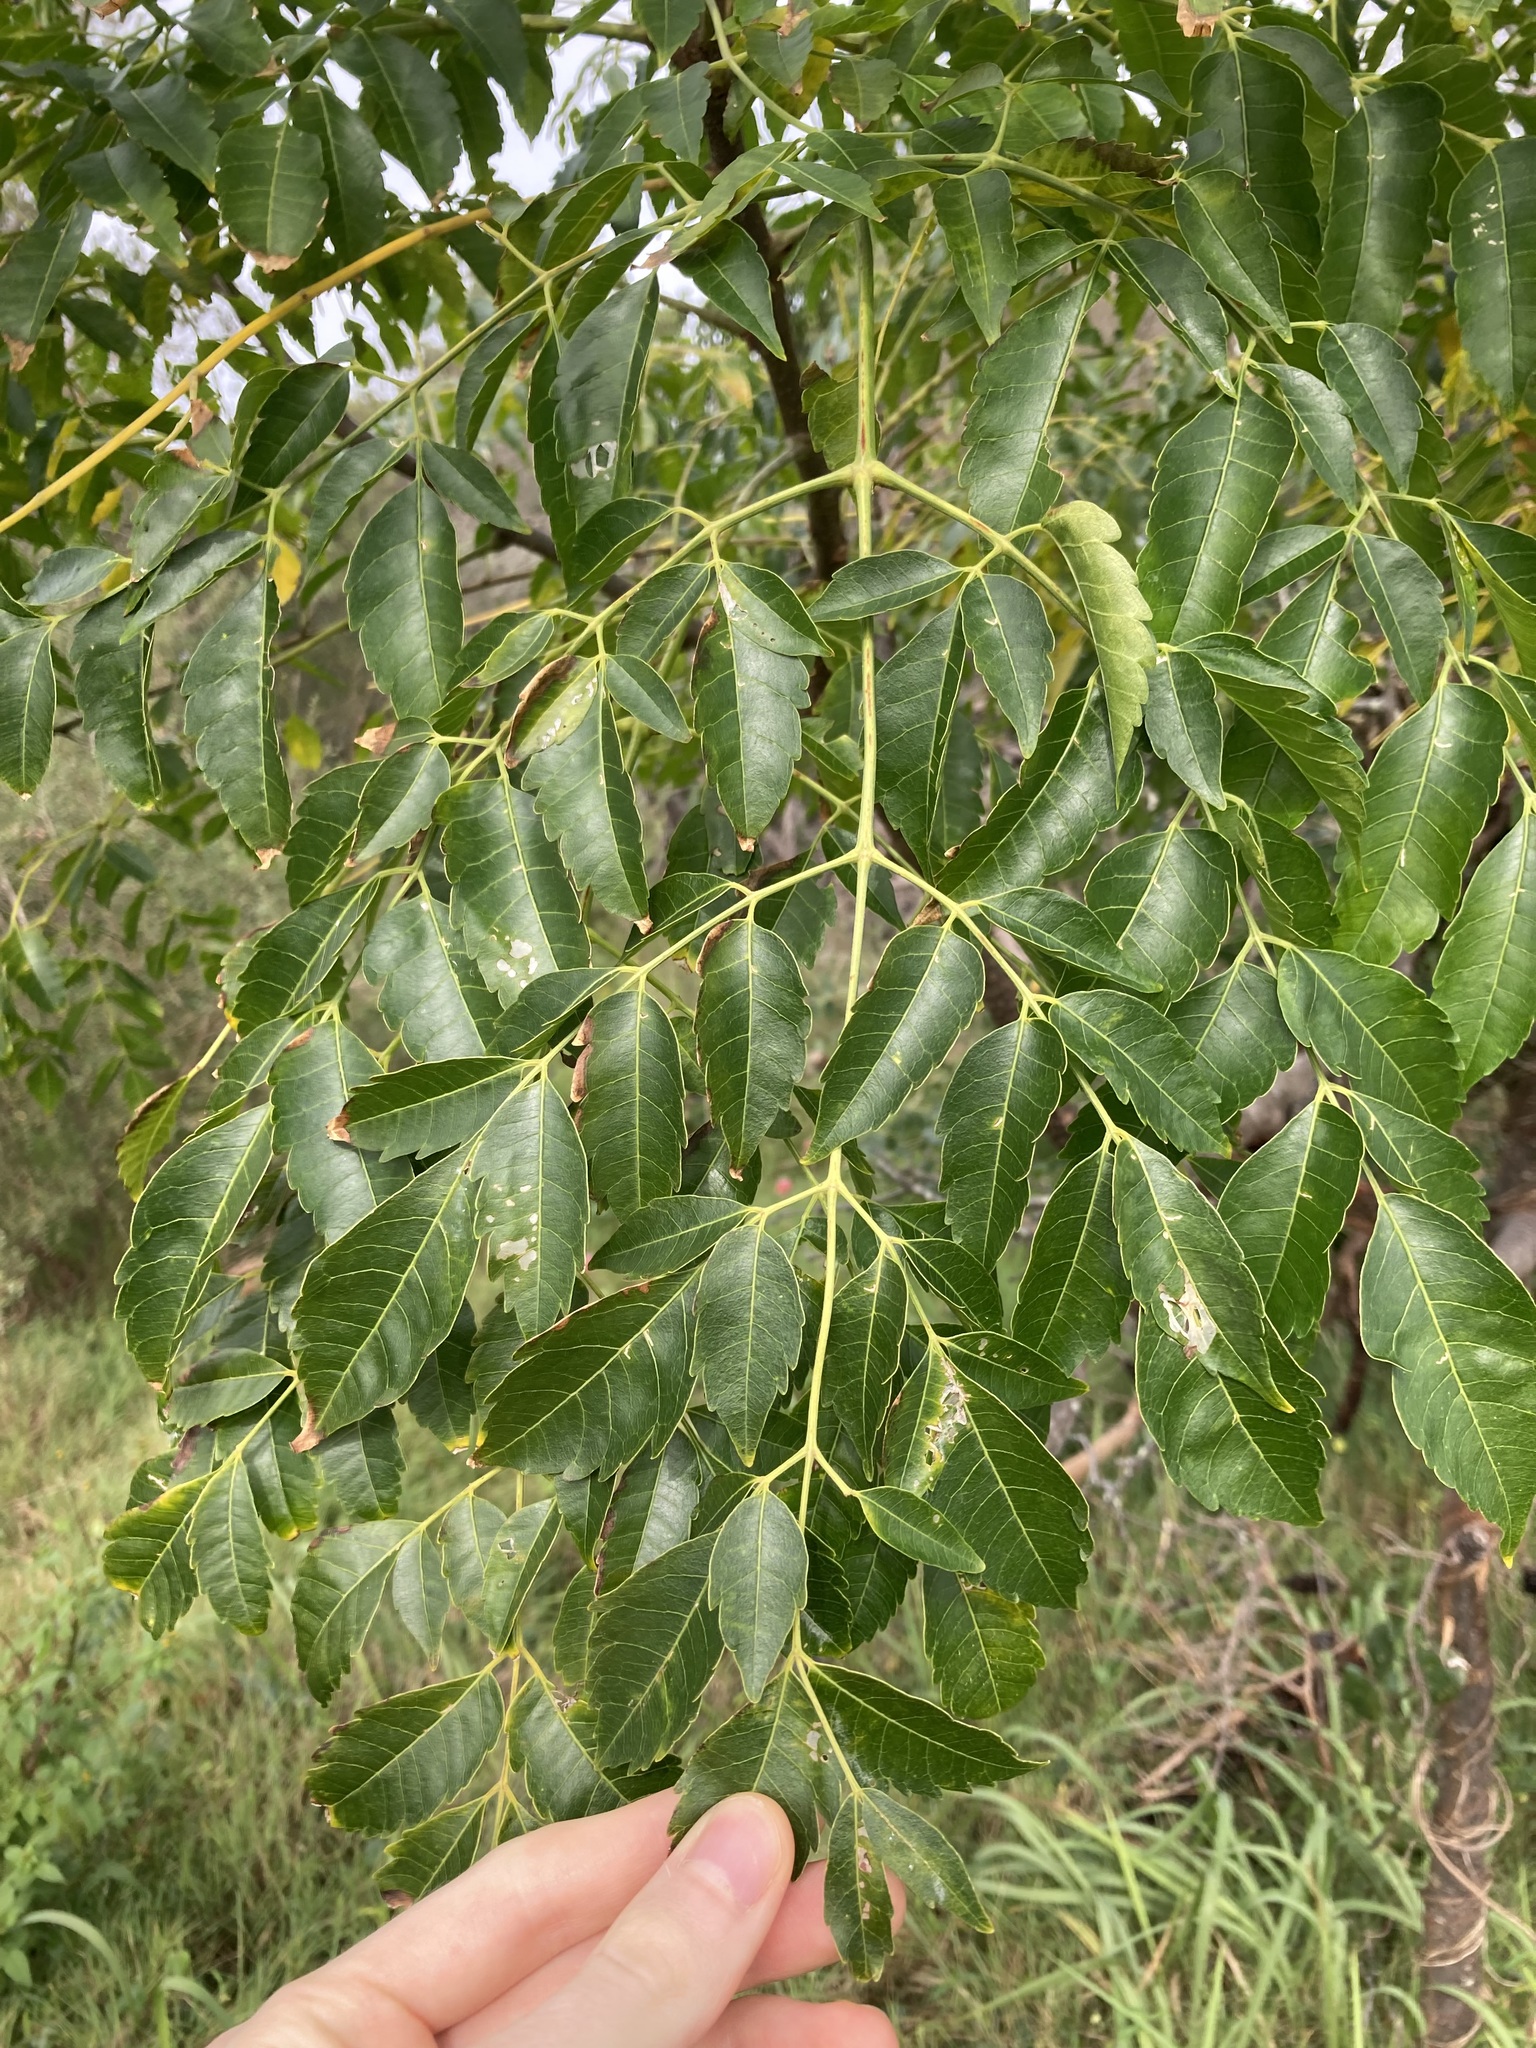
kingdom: Plantae
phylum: Tracheophyta
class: Magnoliopsida
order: Sapindales
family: Meliaceae
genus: Melia
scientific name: Melia azedarach
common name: Chinaberrytree
